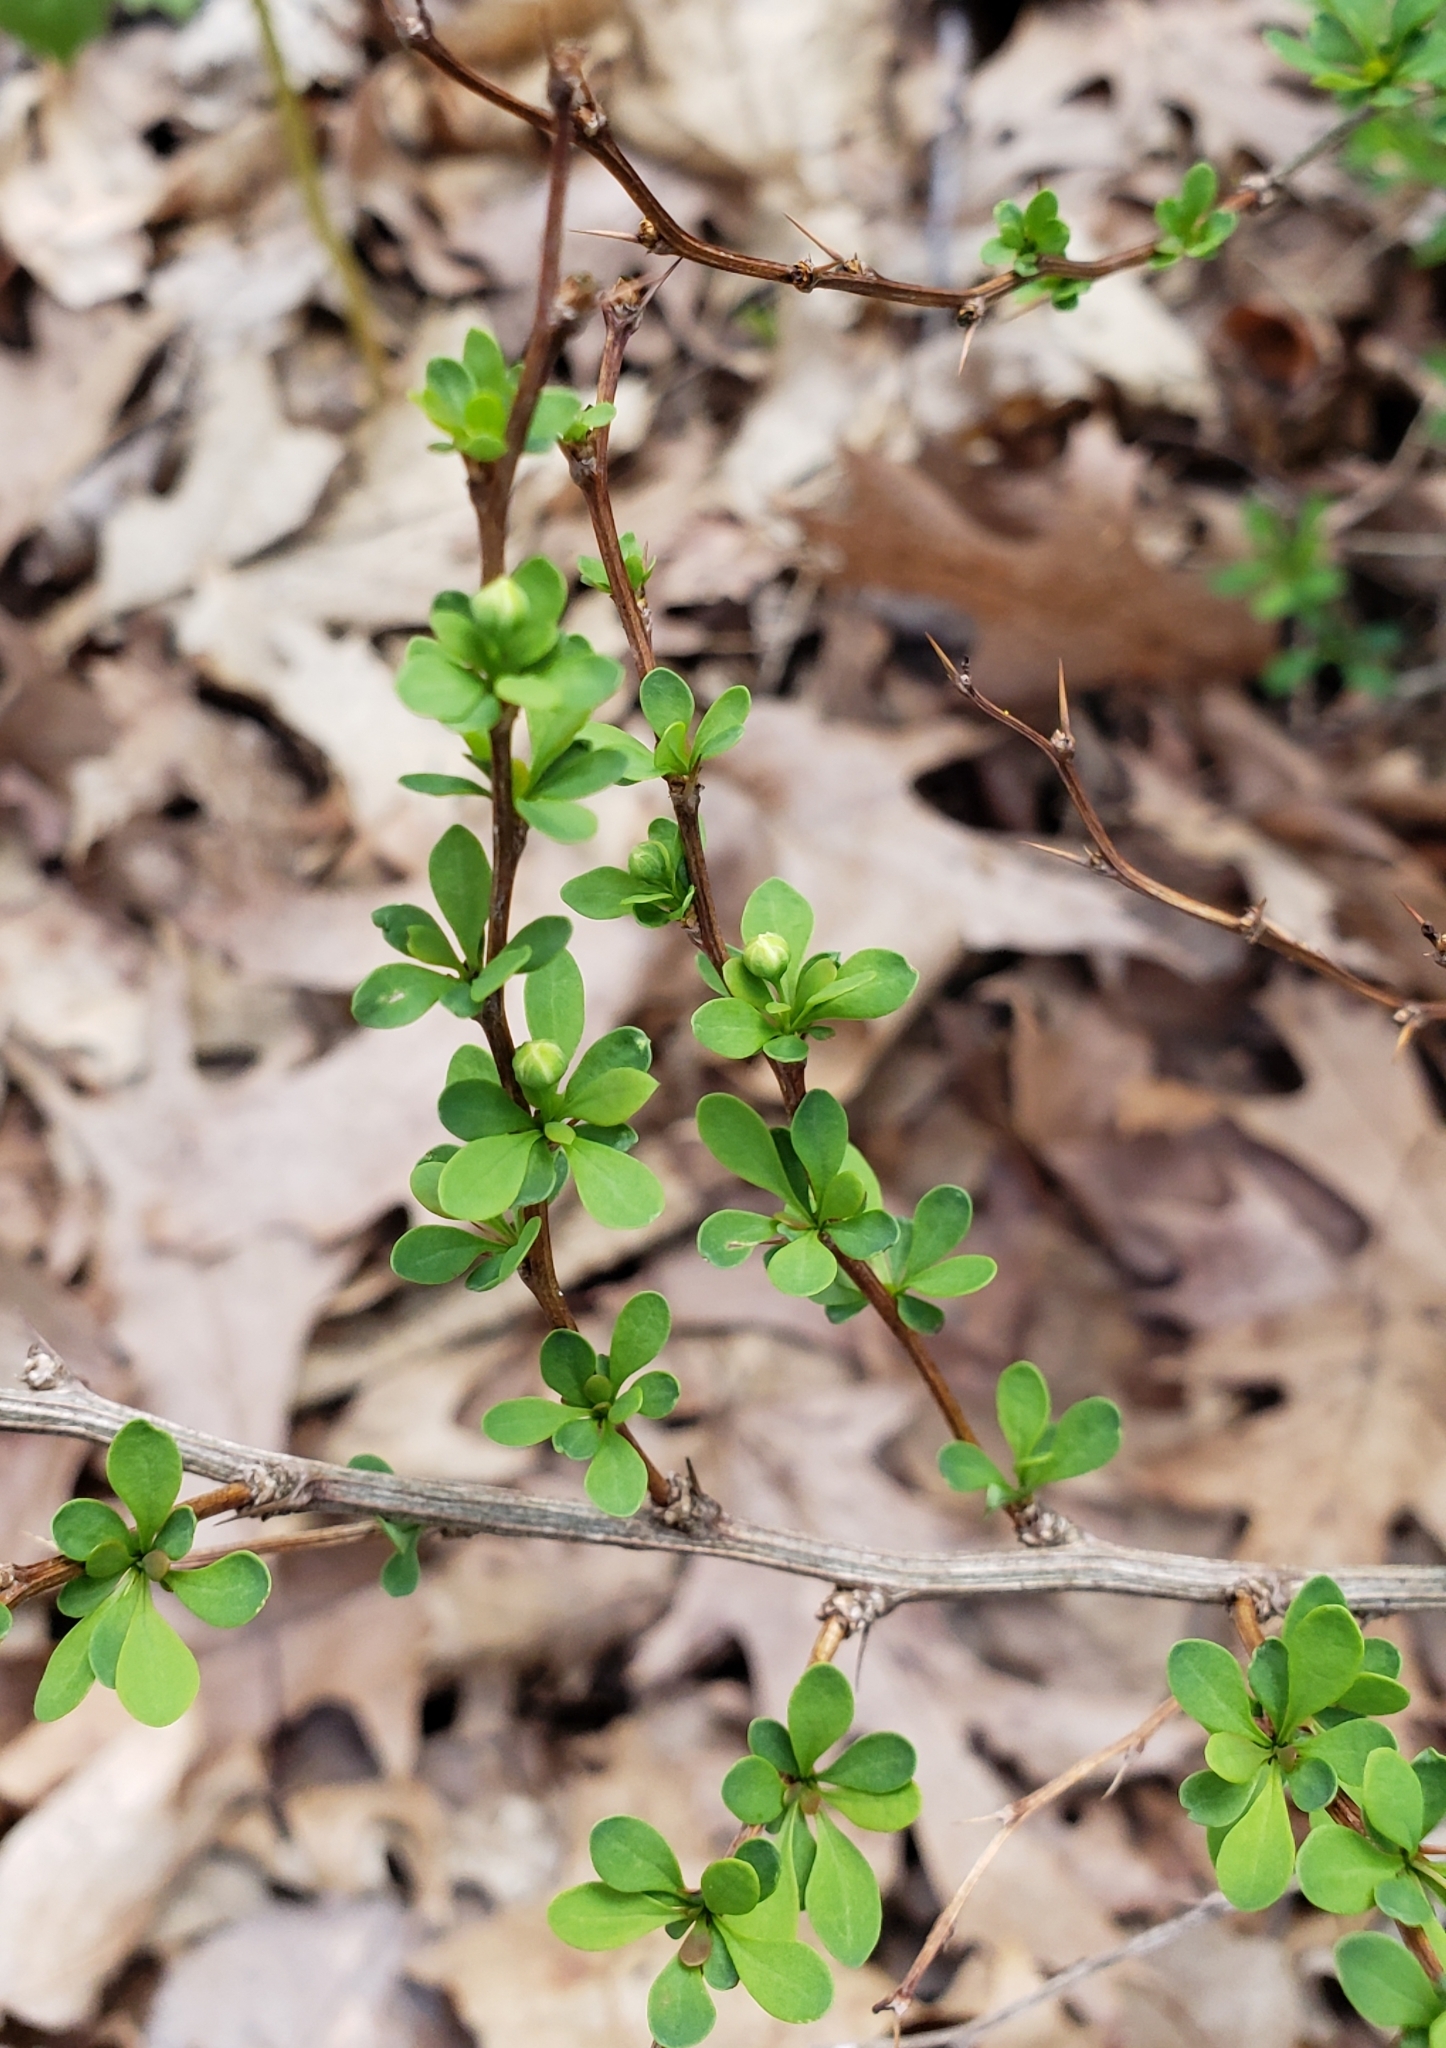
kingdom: Plantae
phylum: Tracheophyta
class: Magnoliopsida
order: Ranunculales
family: Berberidaceae
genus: Berberis
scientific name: Berberis thunbergii
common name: Japanese barberry
